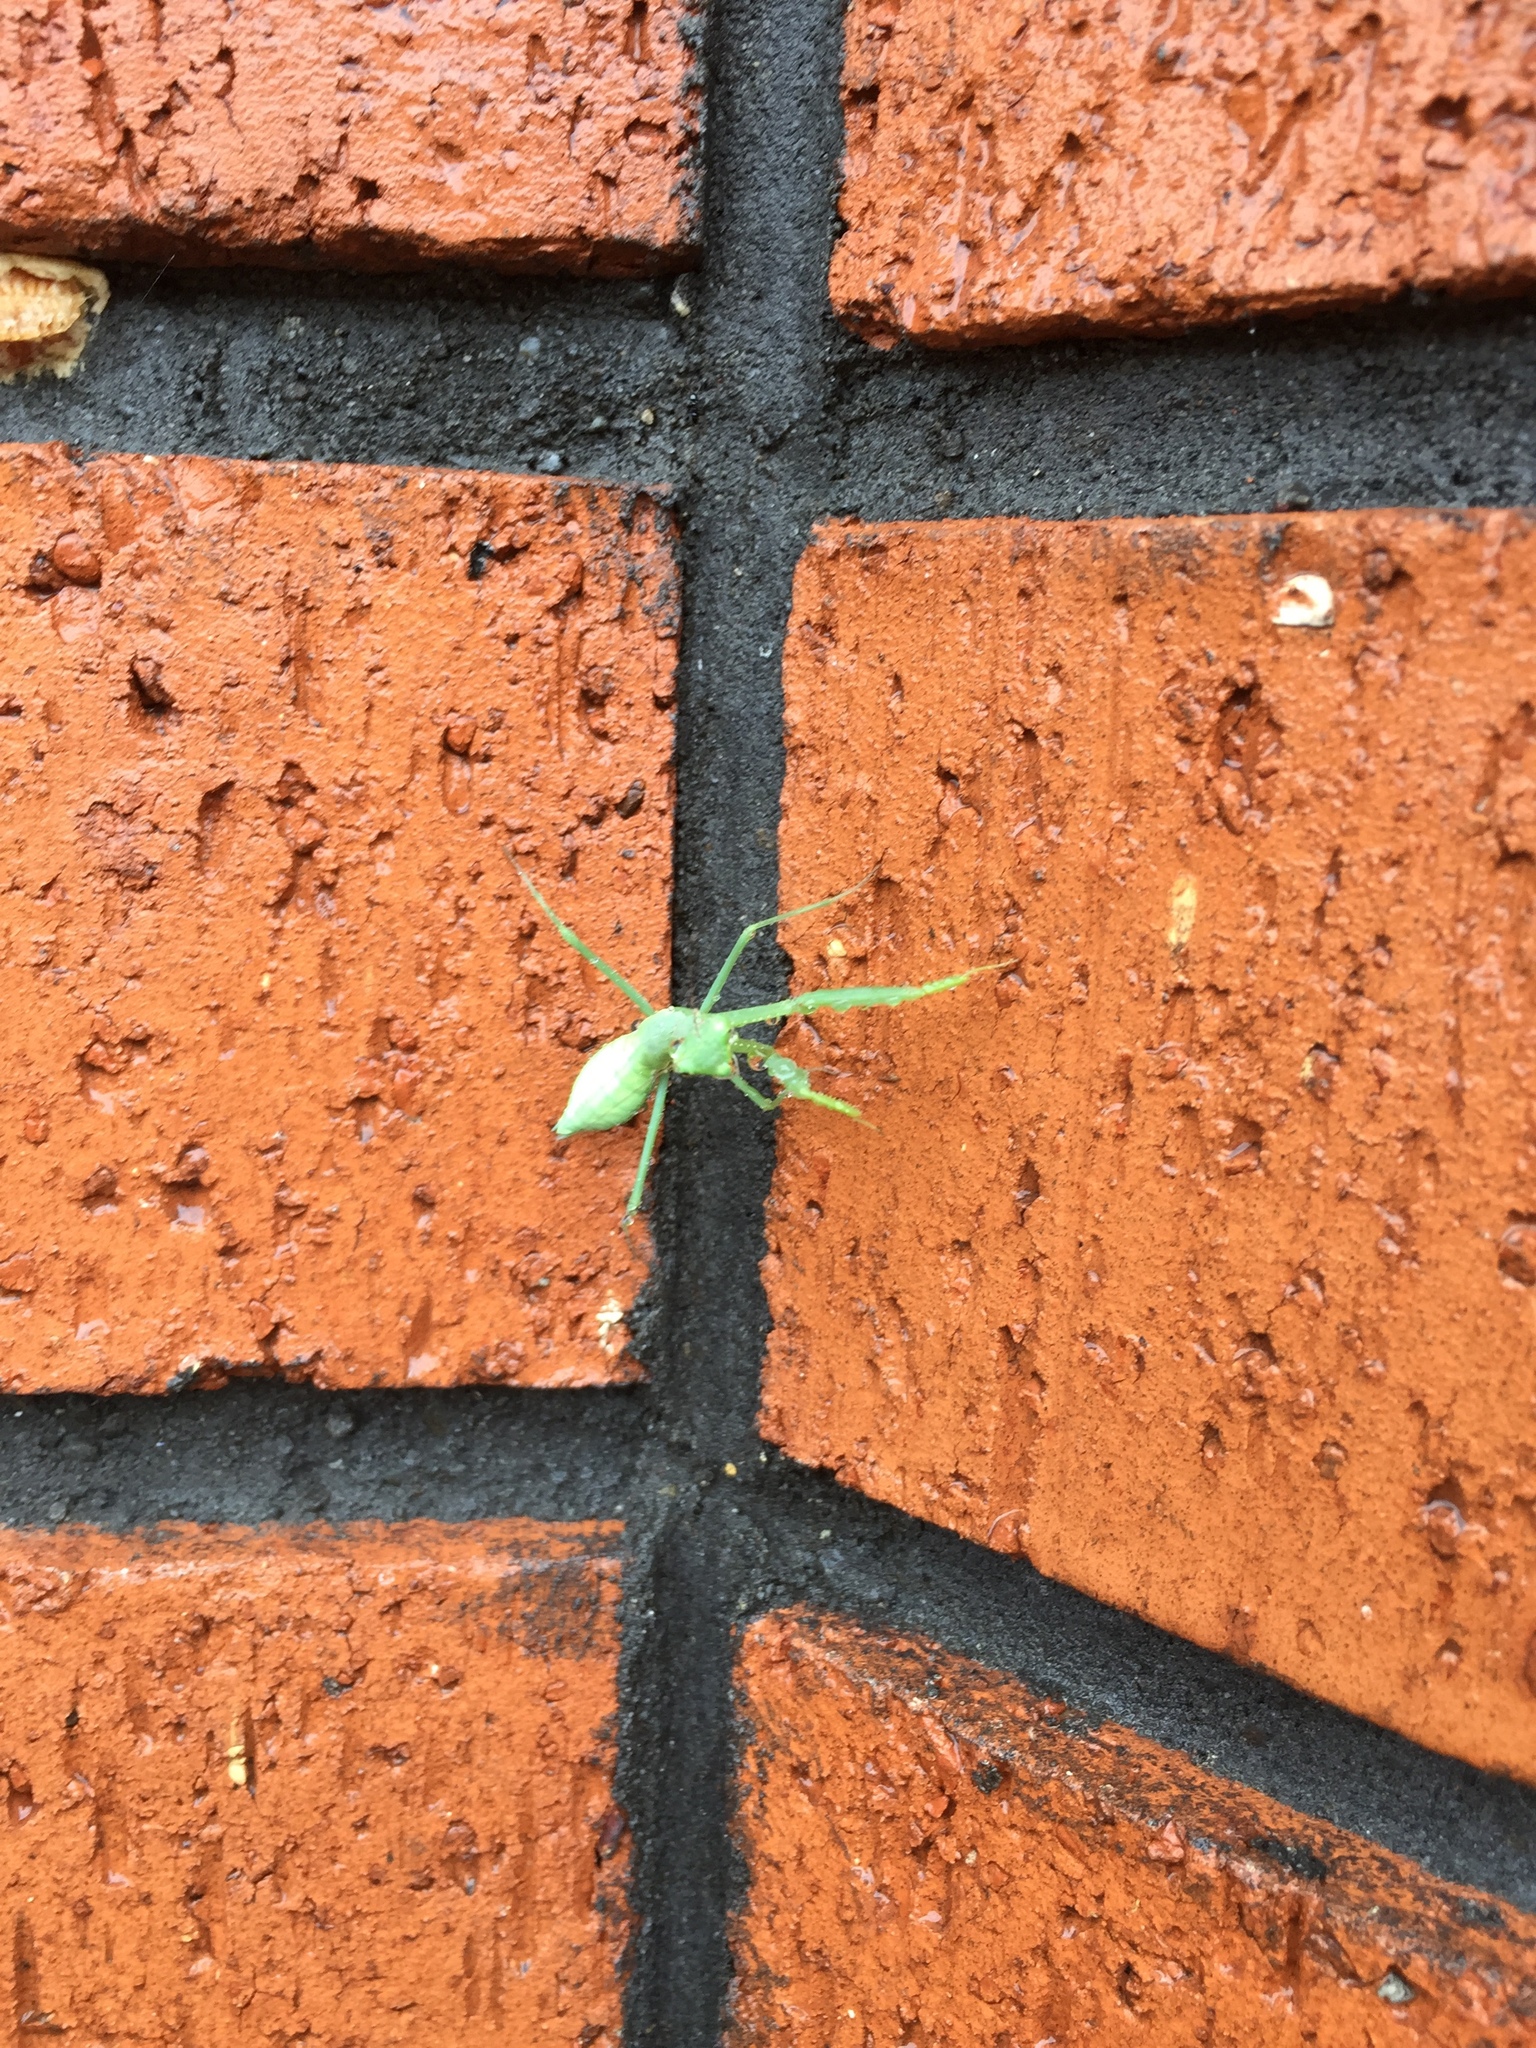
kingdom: Animalia
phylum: Arthropoda
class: Insecta
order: Mantodea
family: Miomantidae
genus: Miomantis
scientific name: Miomantis caffra
